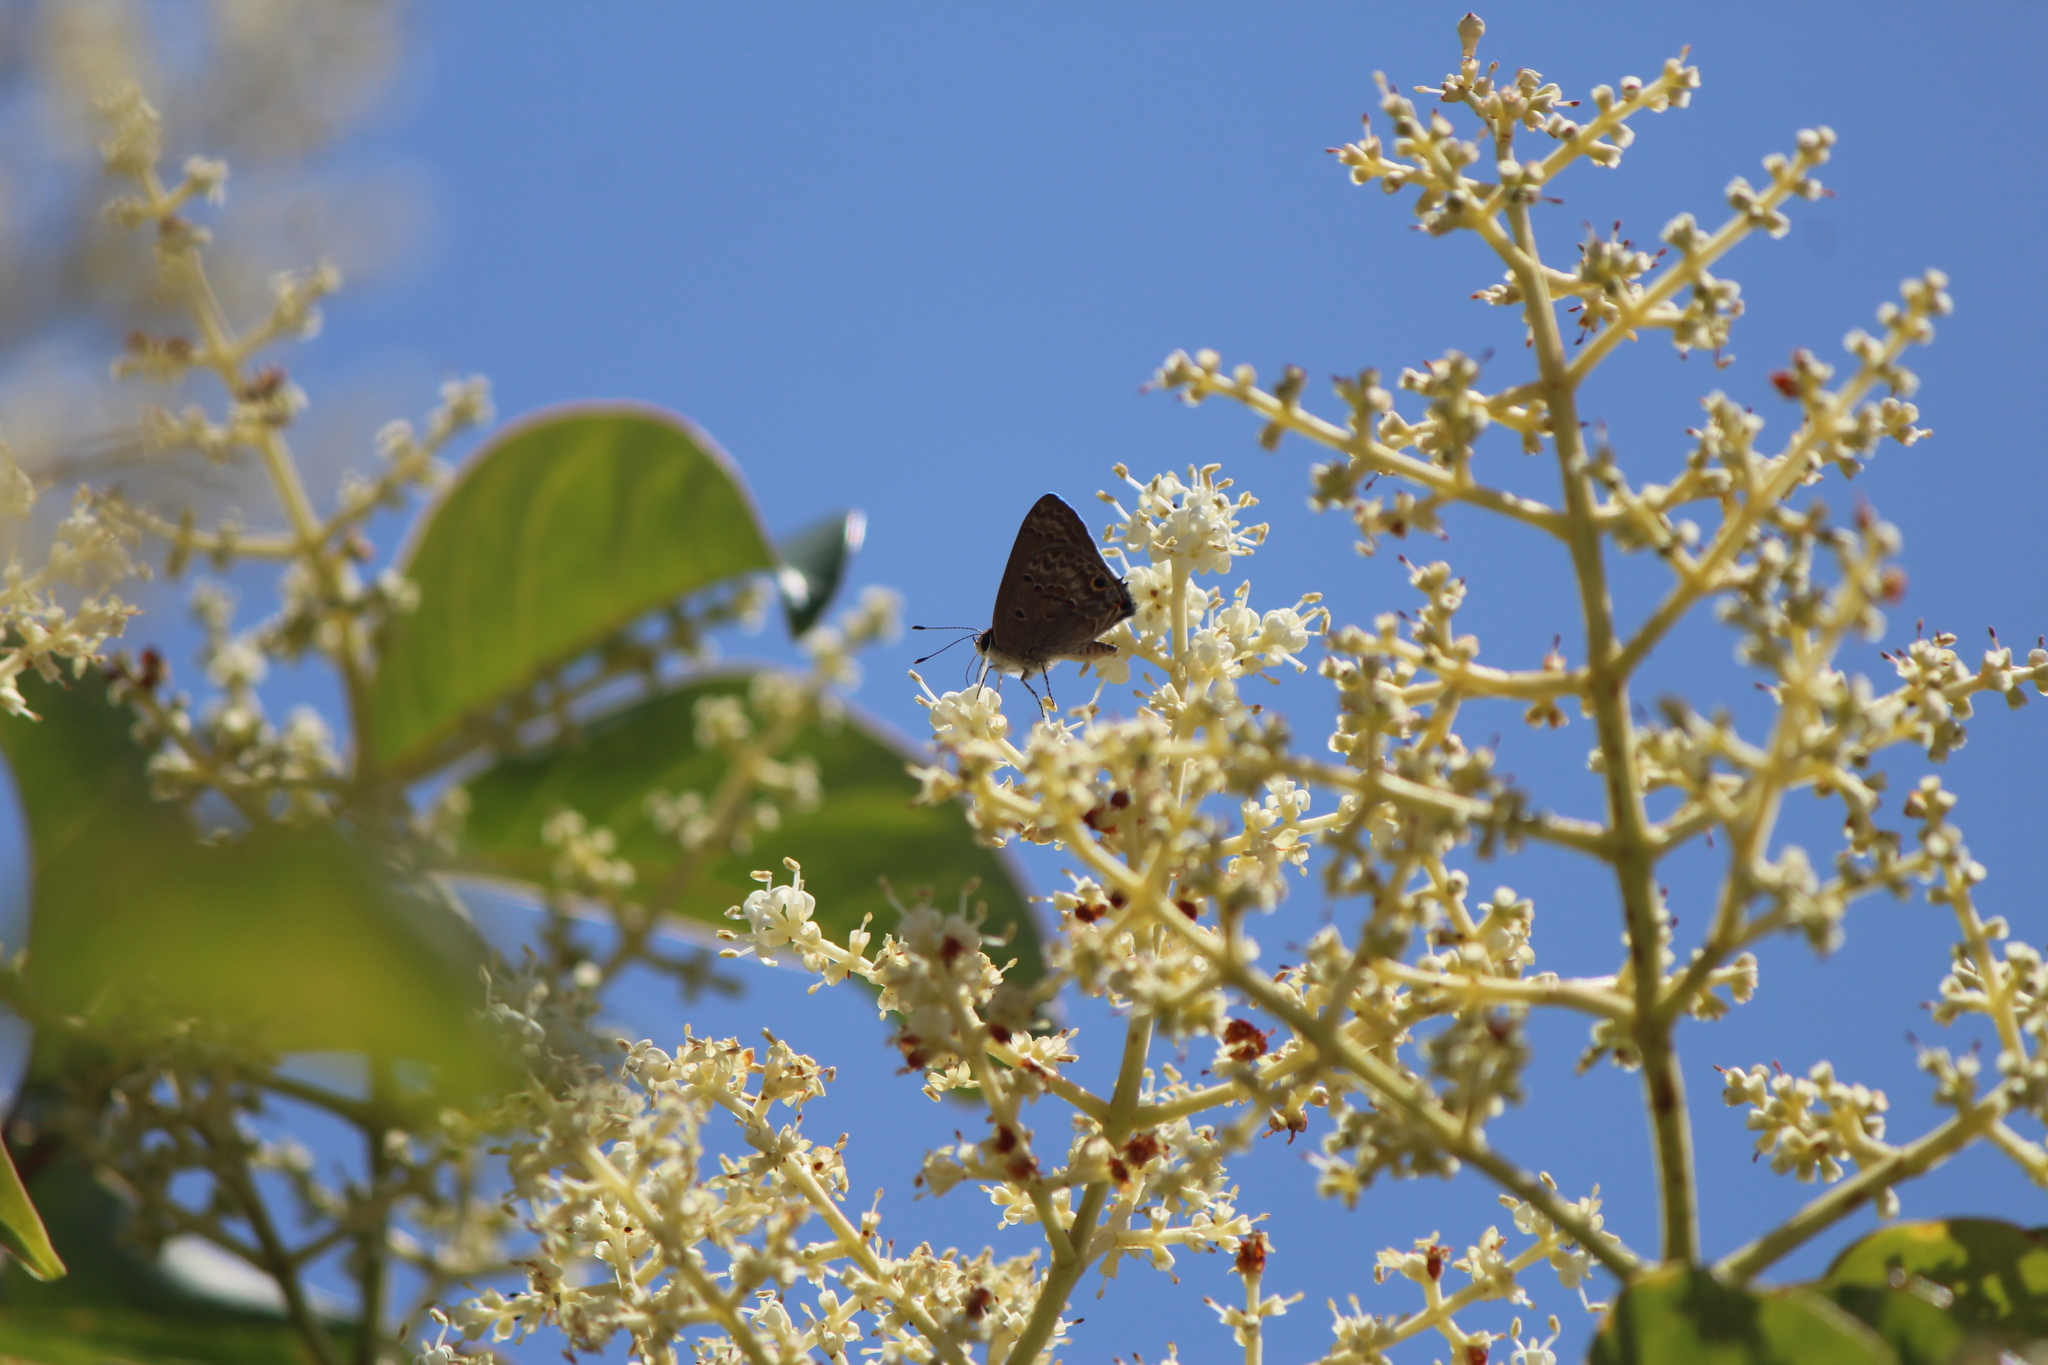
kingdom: Animalia
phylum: Arthropoda
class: Insecta
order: Lepidoptera
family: Lycaenidae
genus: Callicista
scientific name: Callicista columella
